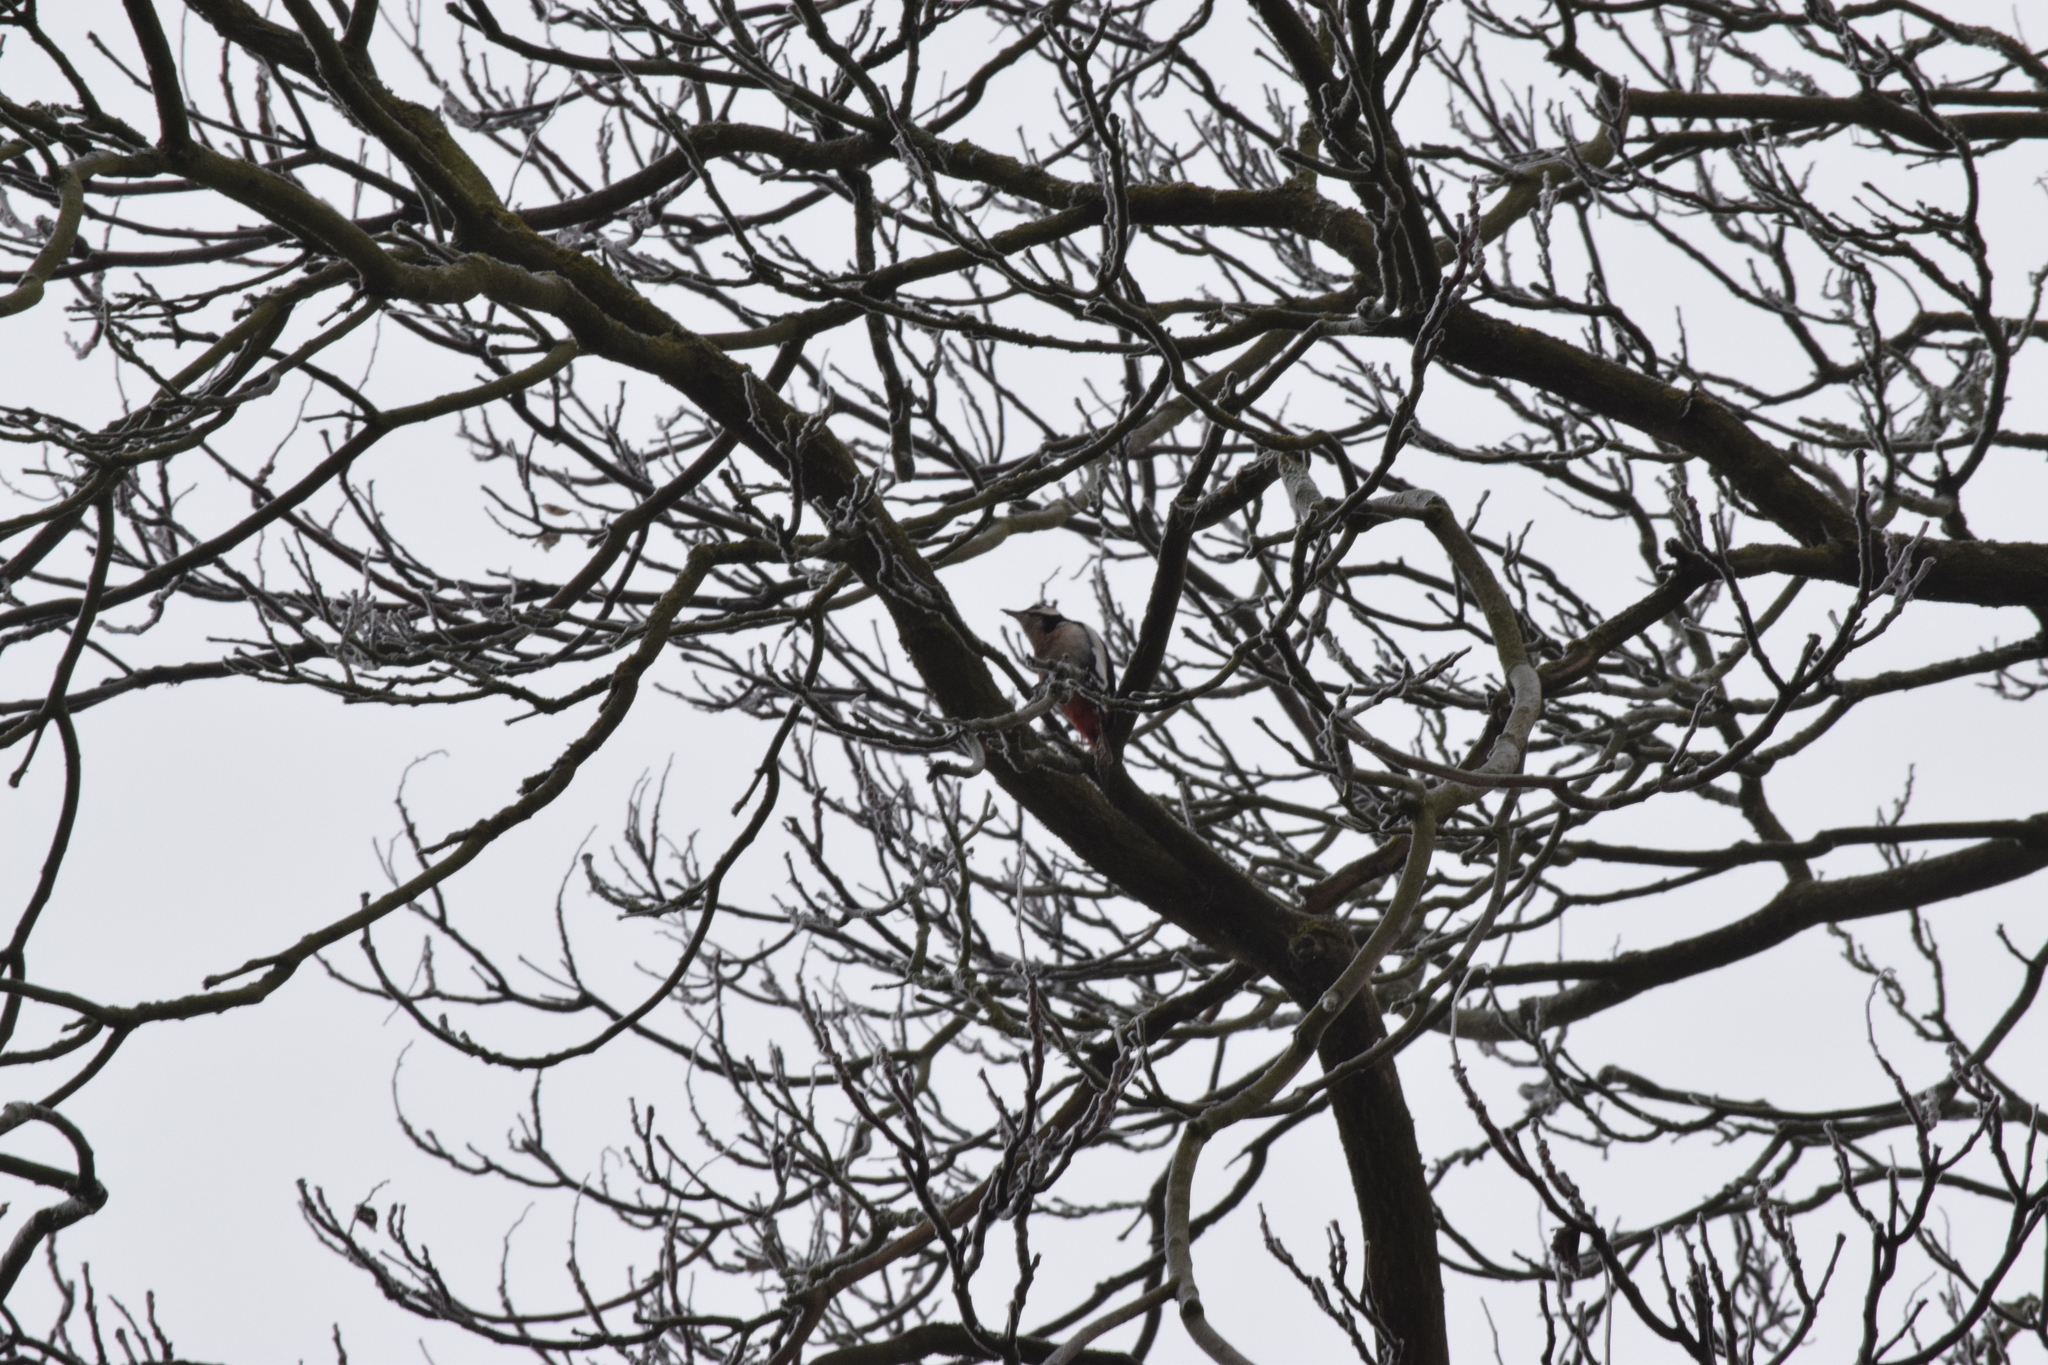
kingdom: Animalia
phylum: Chordata
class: Aves
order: Piciformes
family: Picidae
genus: Dendrocopos
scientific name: Dendrocopos major
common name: Great spotted woodpecker
